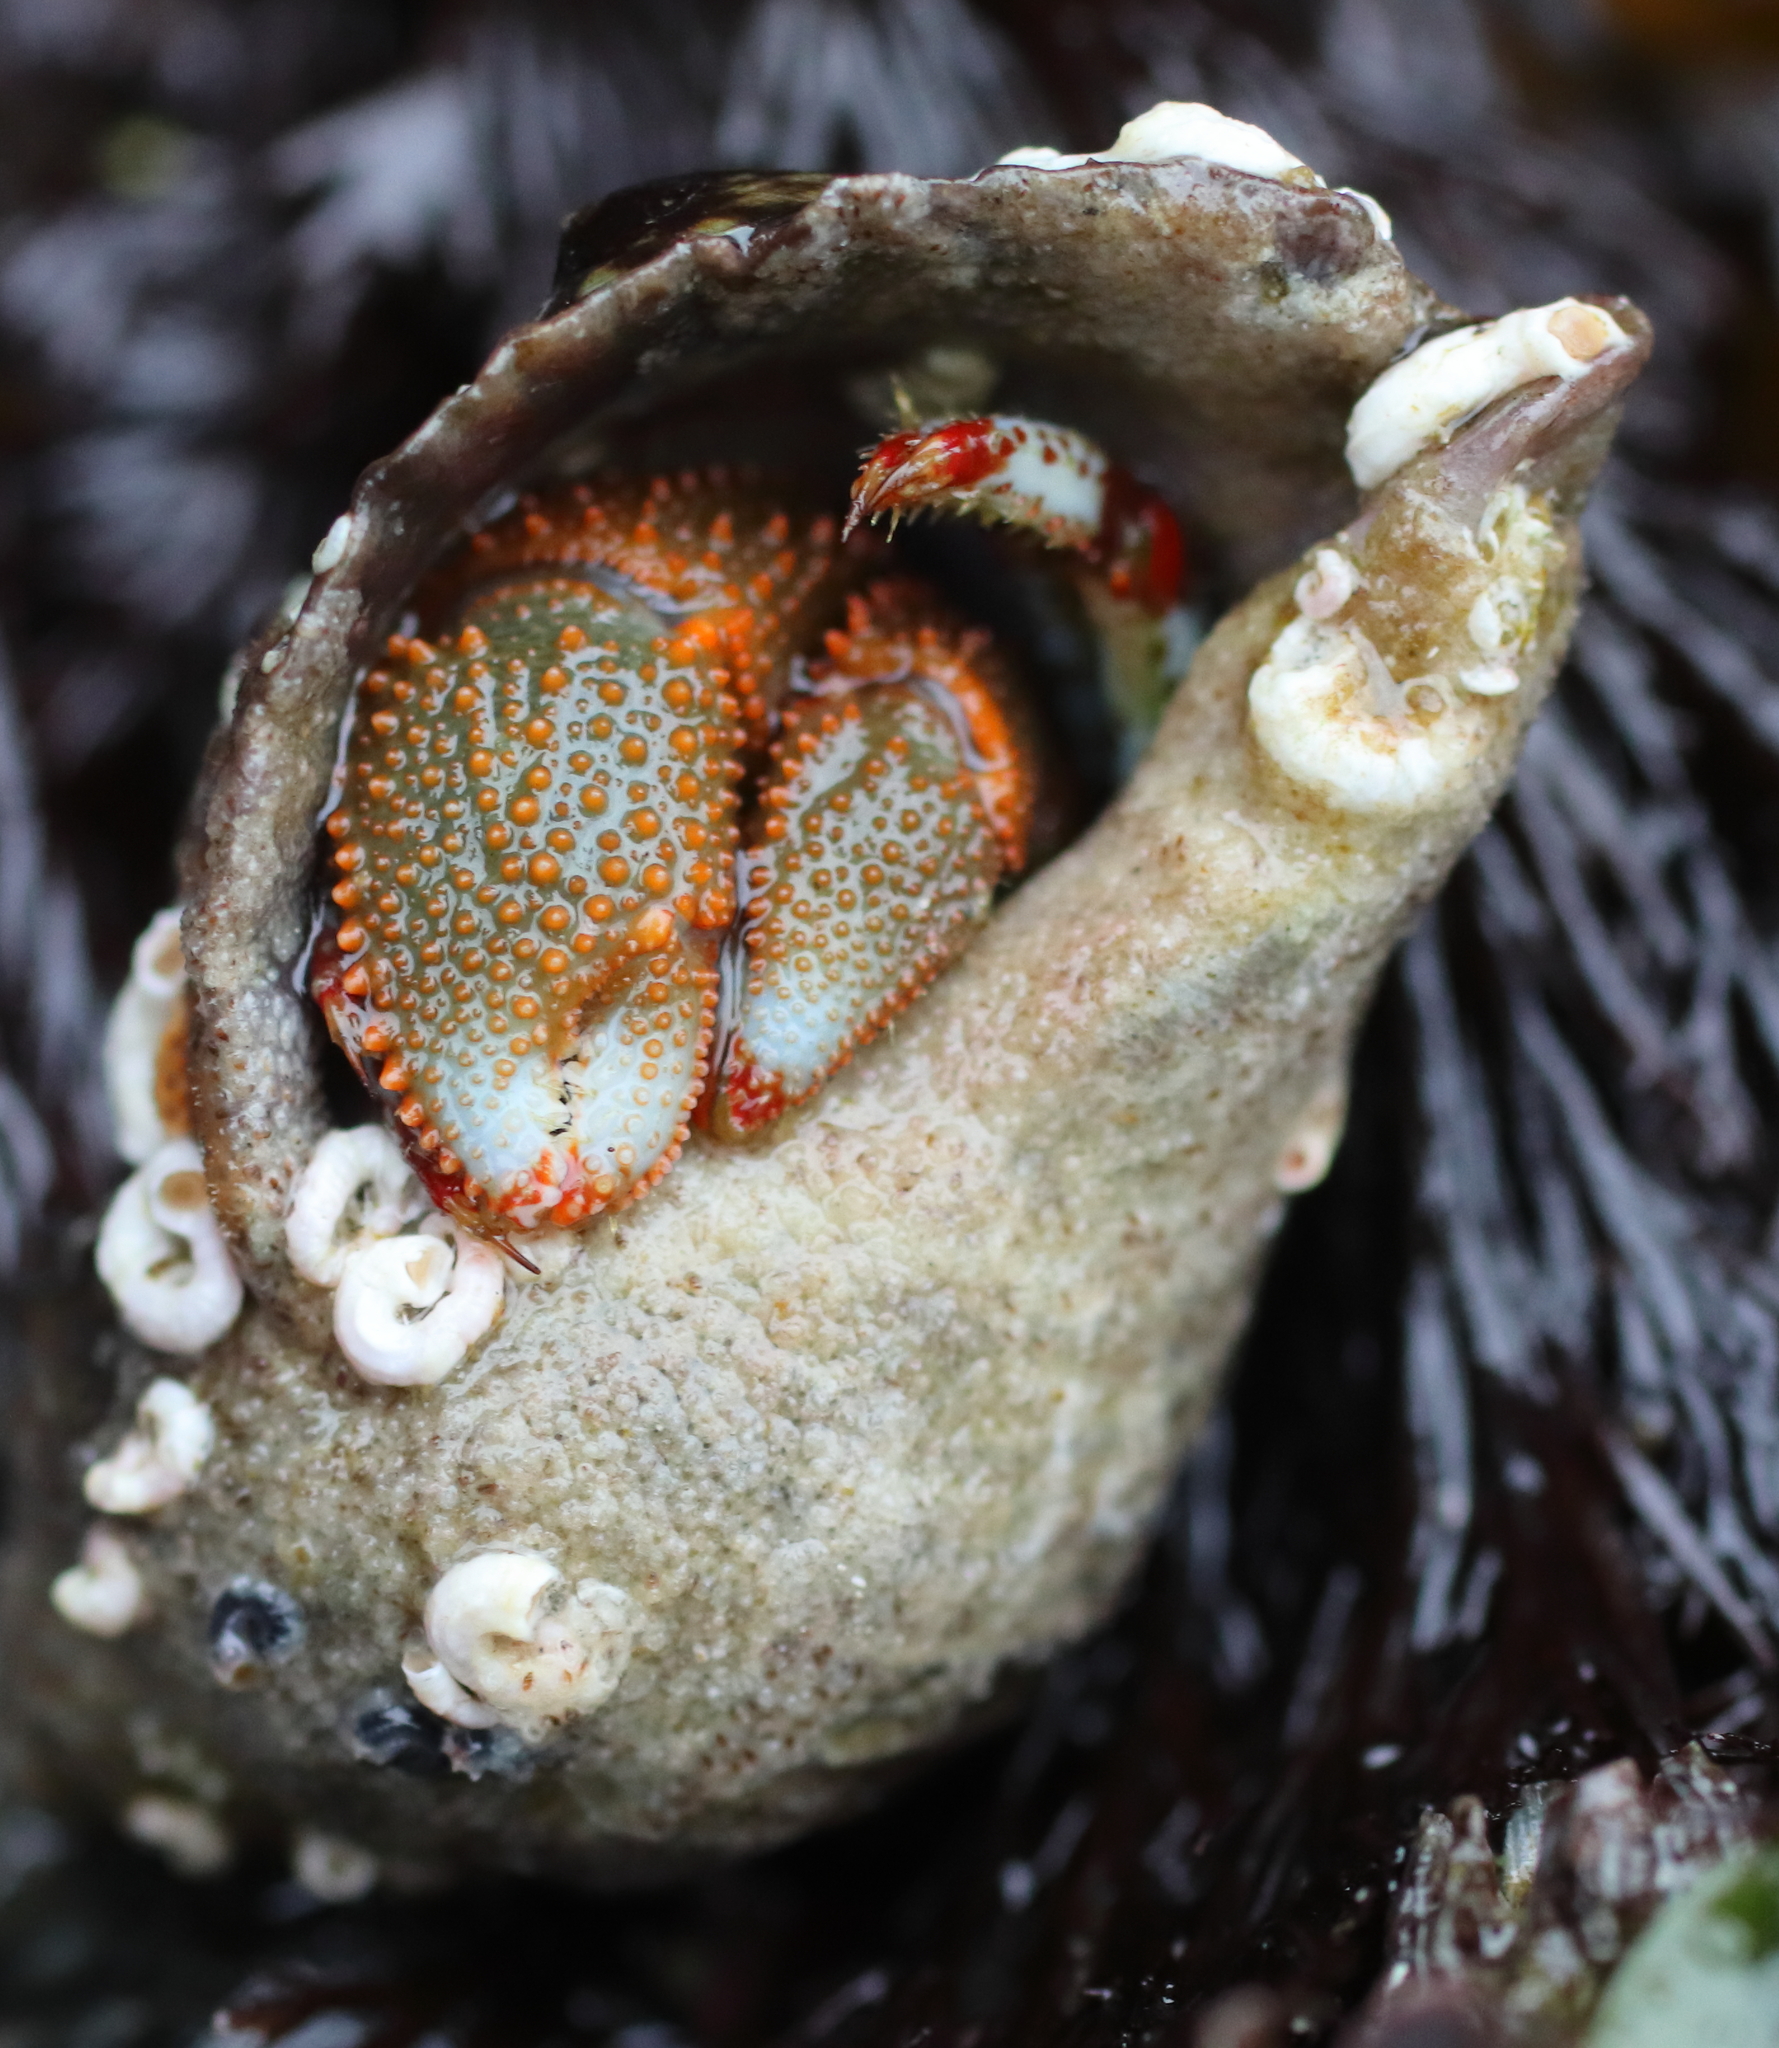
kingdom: Animalia
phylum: Arthropoda
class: Malacostraca
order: Decapoda
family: Paguridae
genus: Pagurus
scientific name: Pagurus beringanus
